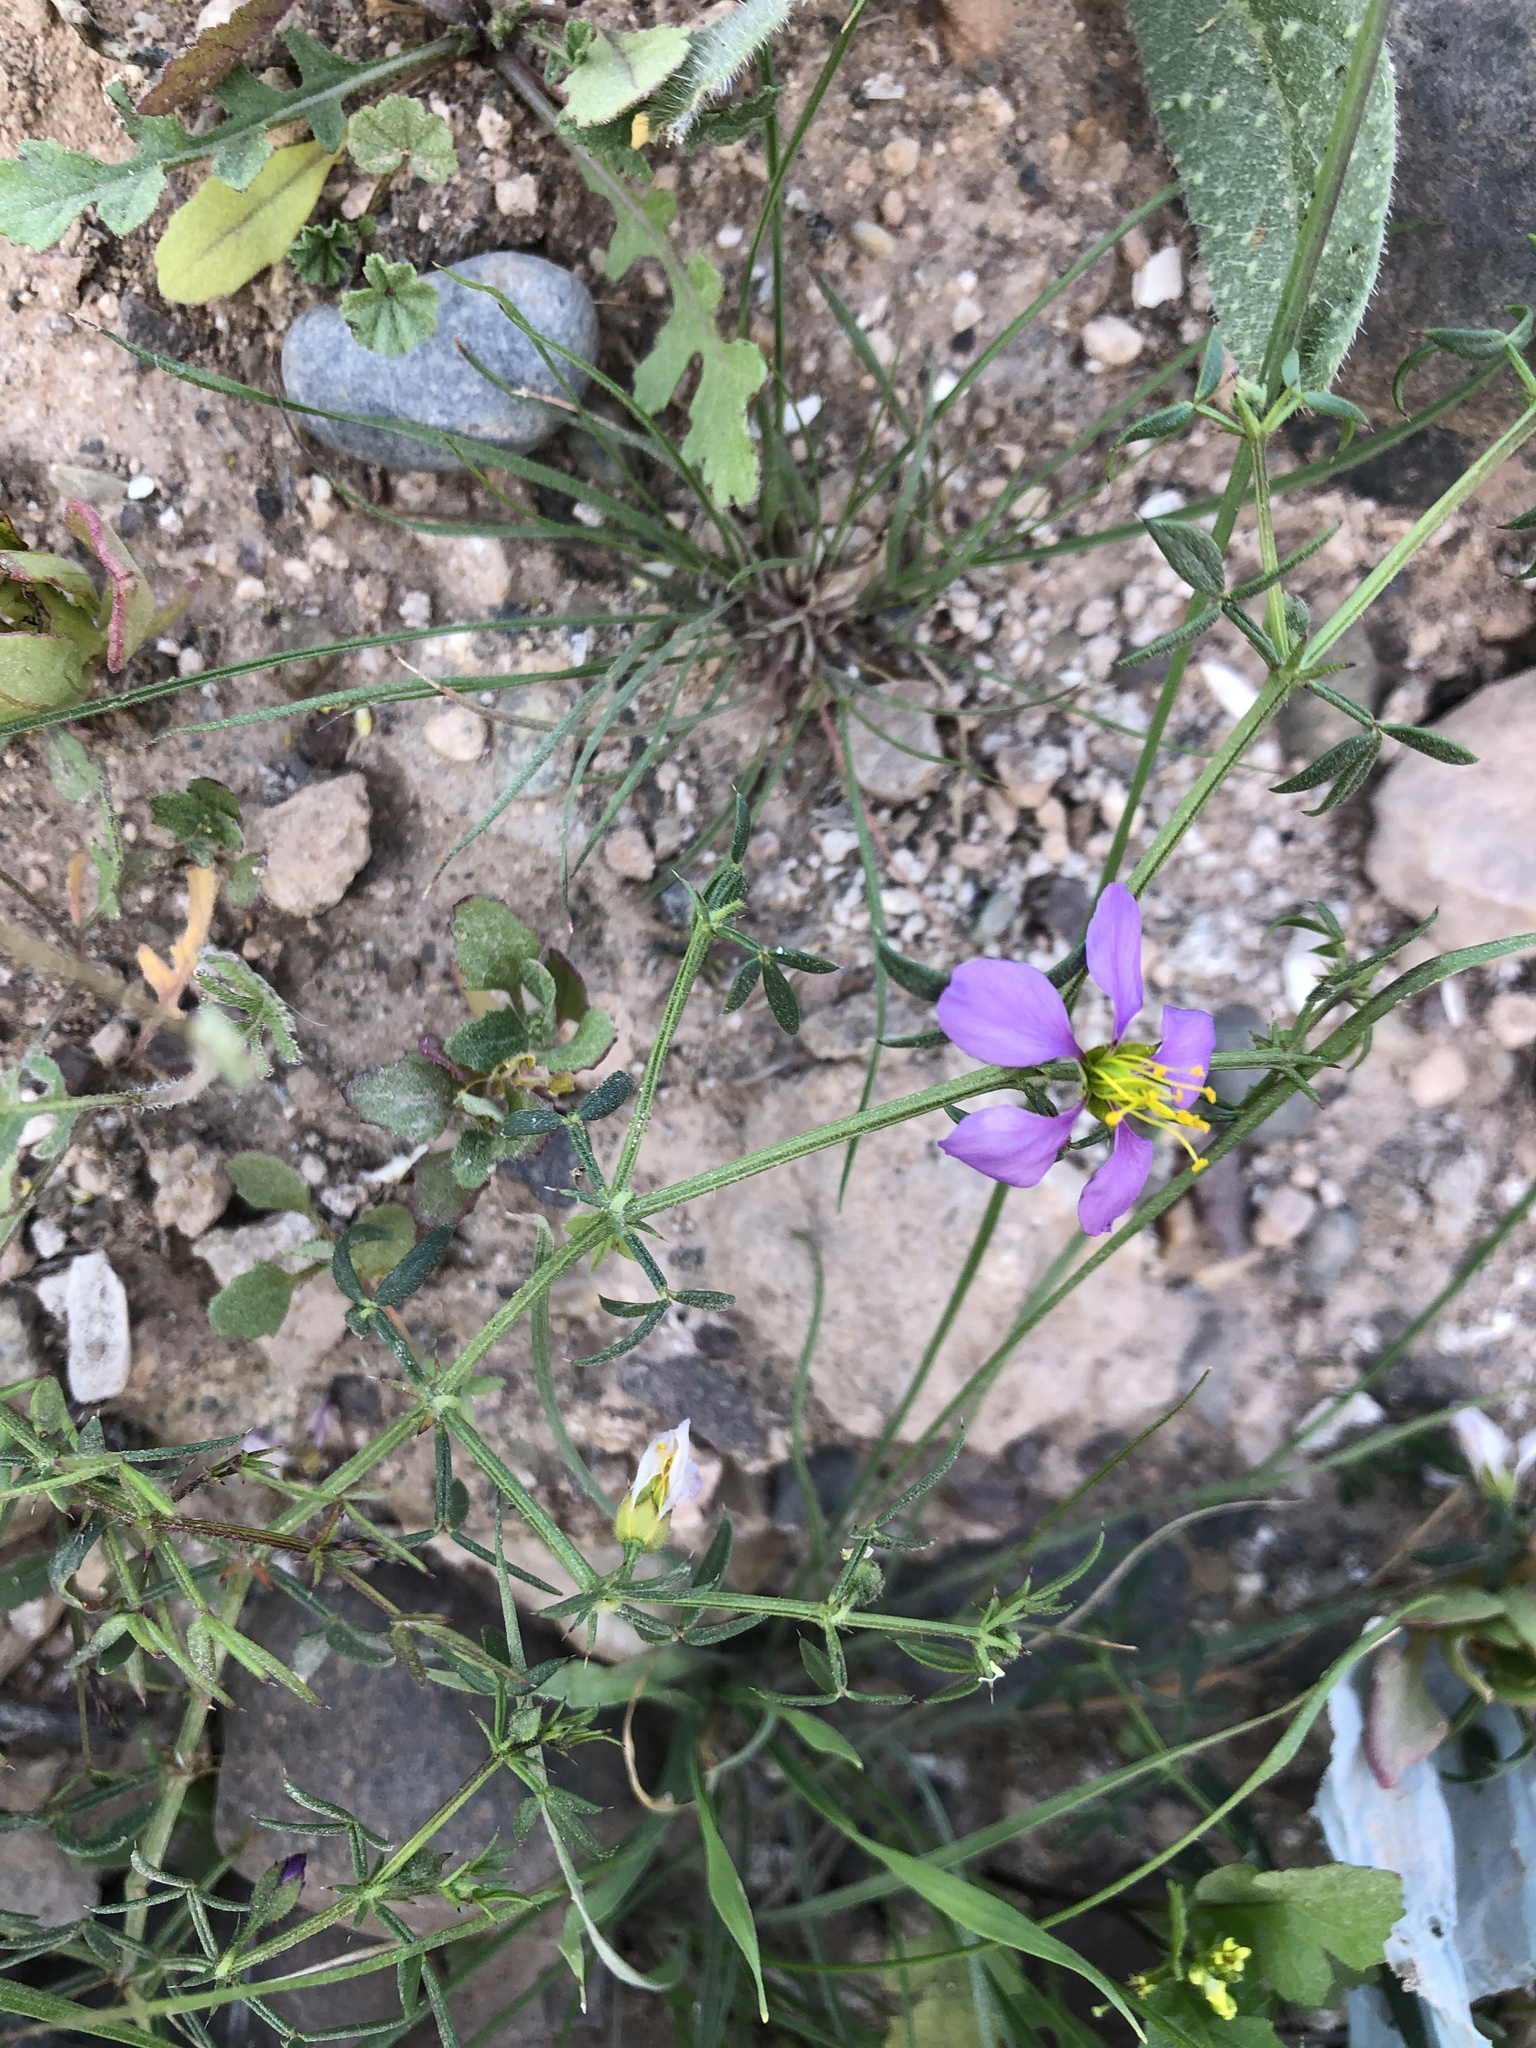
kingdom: Plantae
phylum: Tracheophyta
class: Magnoliopsida
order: Zygophyllales
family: Zygophyllaceae
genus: Fagonia
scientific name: Fagonia cretica
